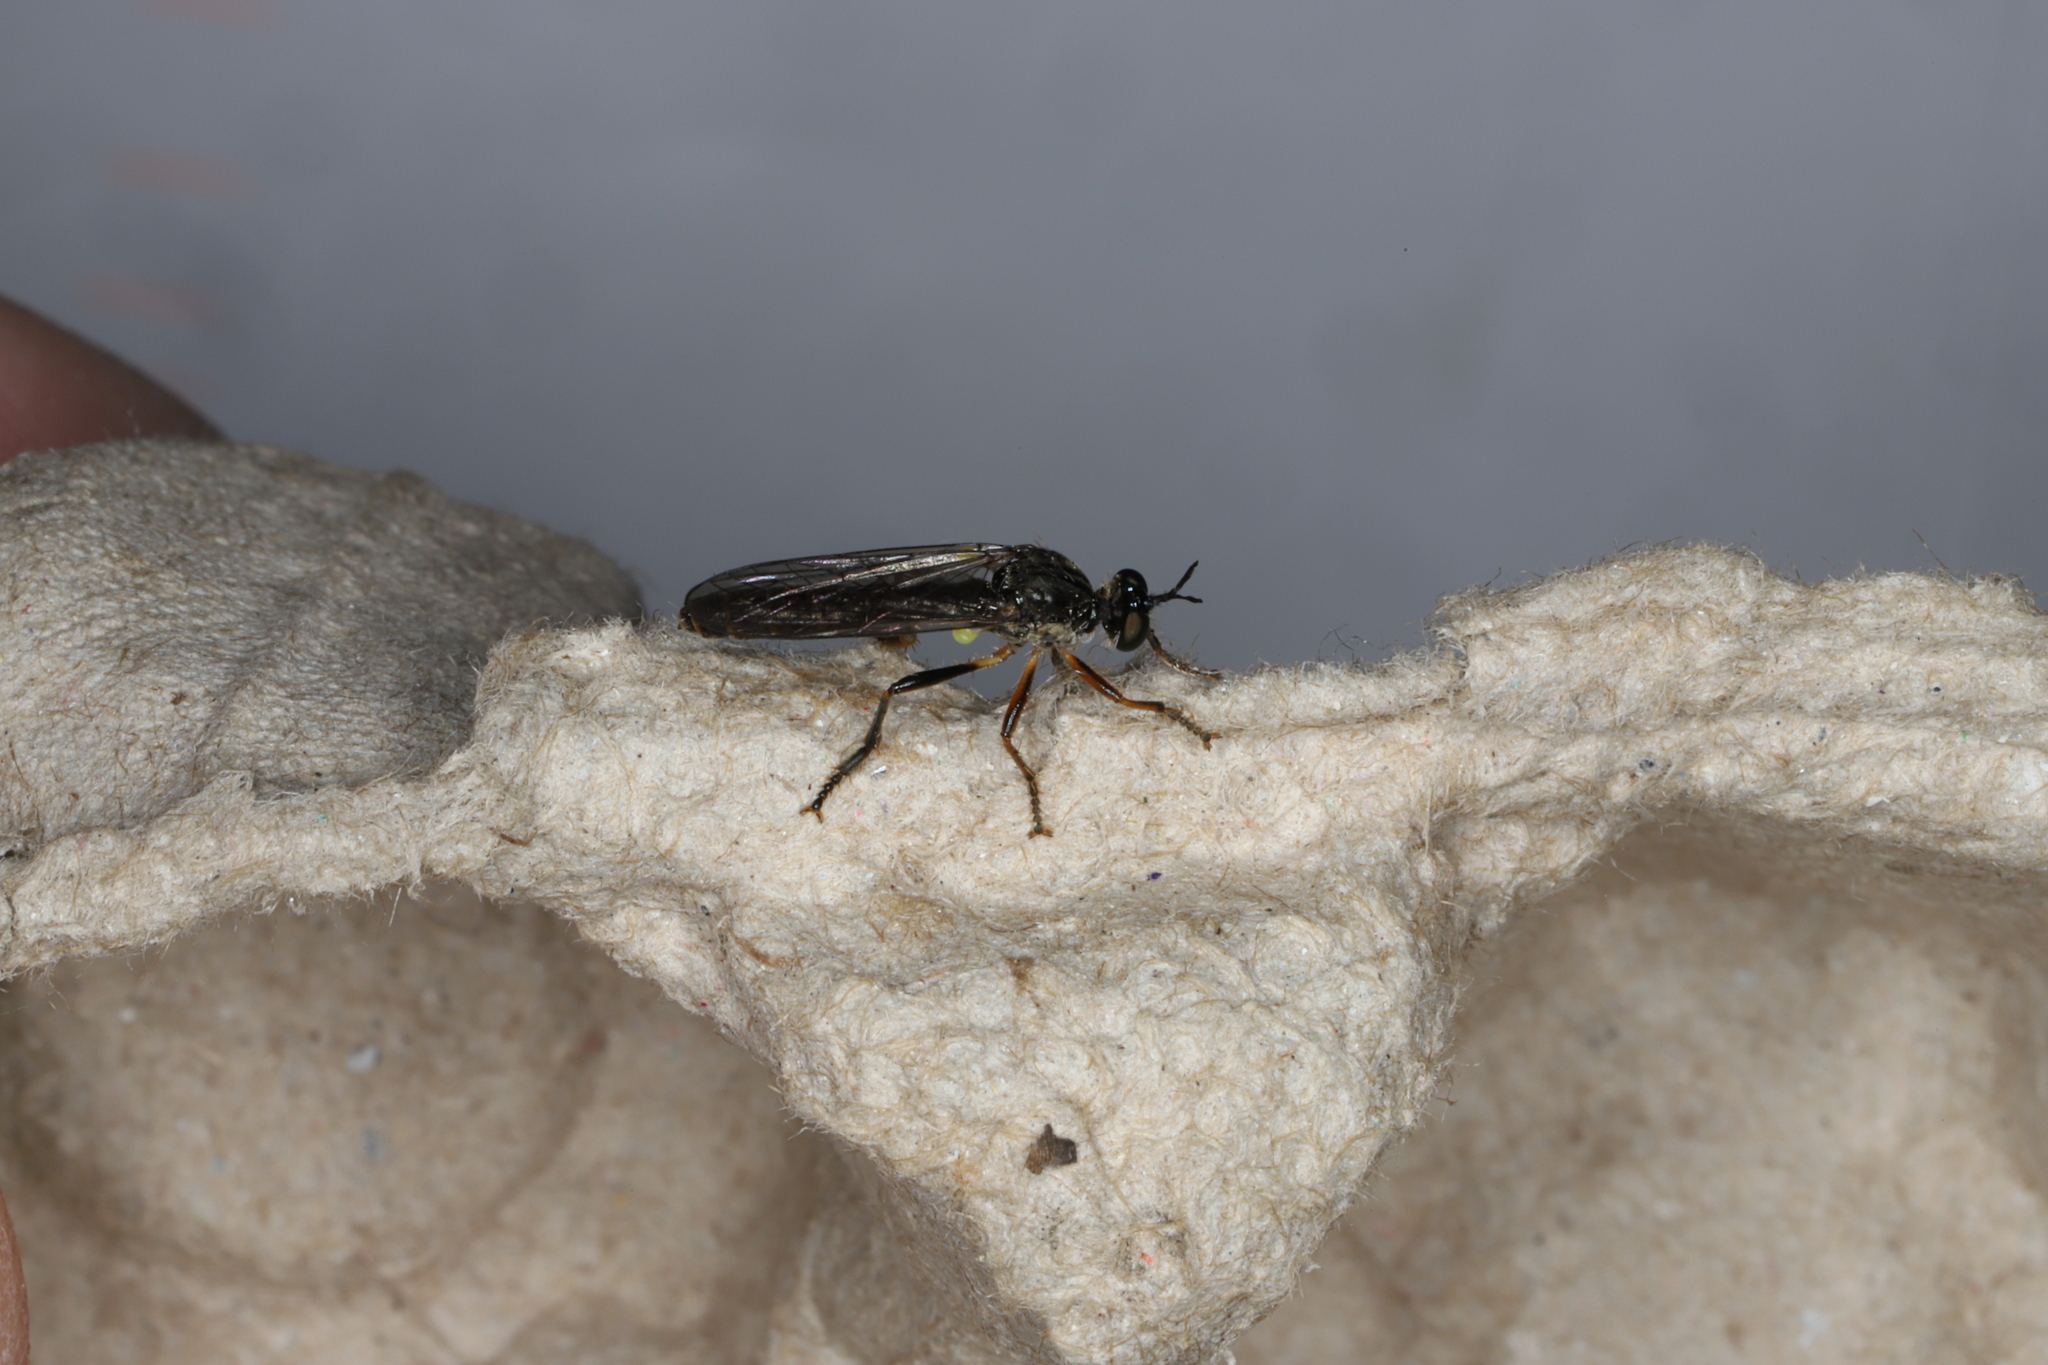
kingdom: Animalia
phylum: Arthropoda
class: Insecta
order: Diptera
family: Asilidae
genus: Dioctria
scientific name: Dioctria hyalipennis
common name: Stripe-legged robberfly
